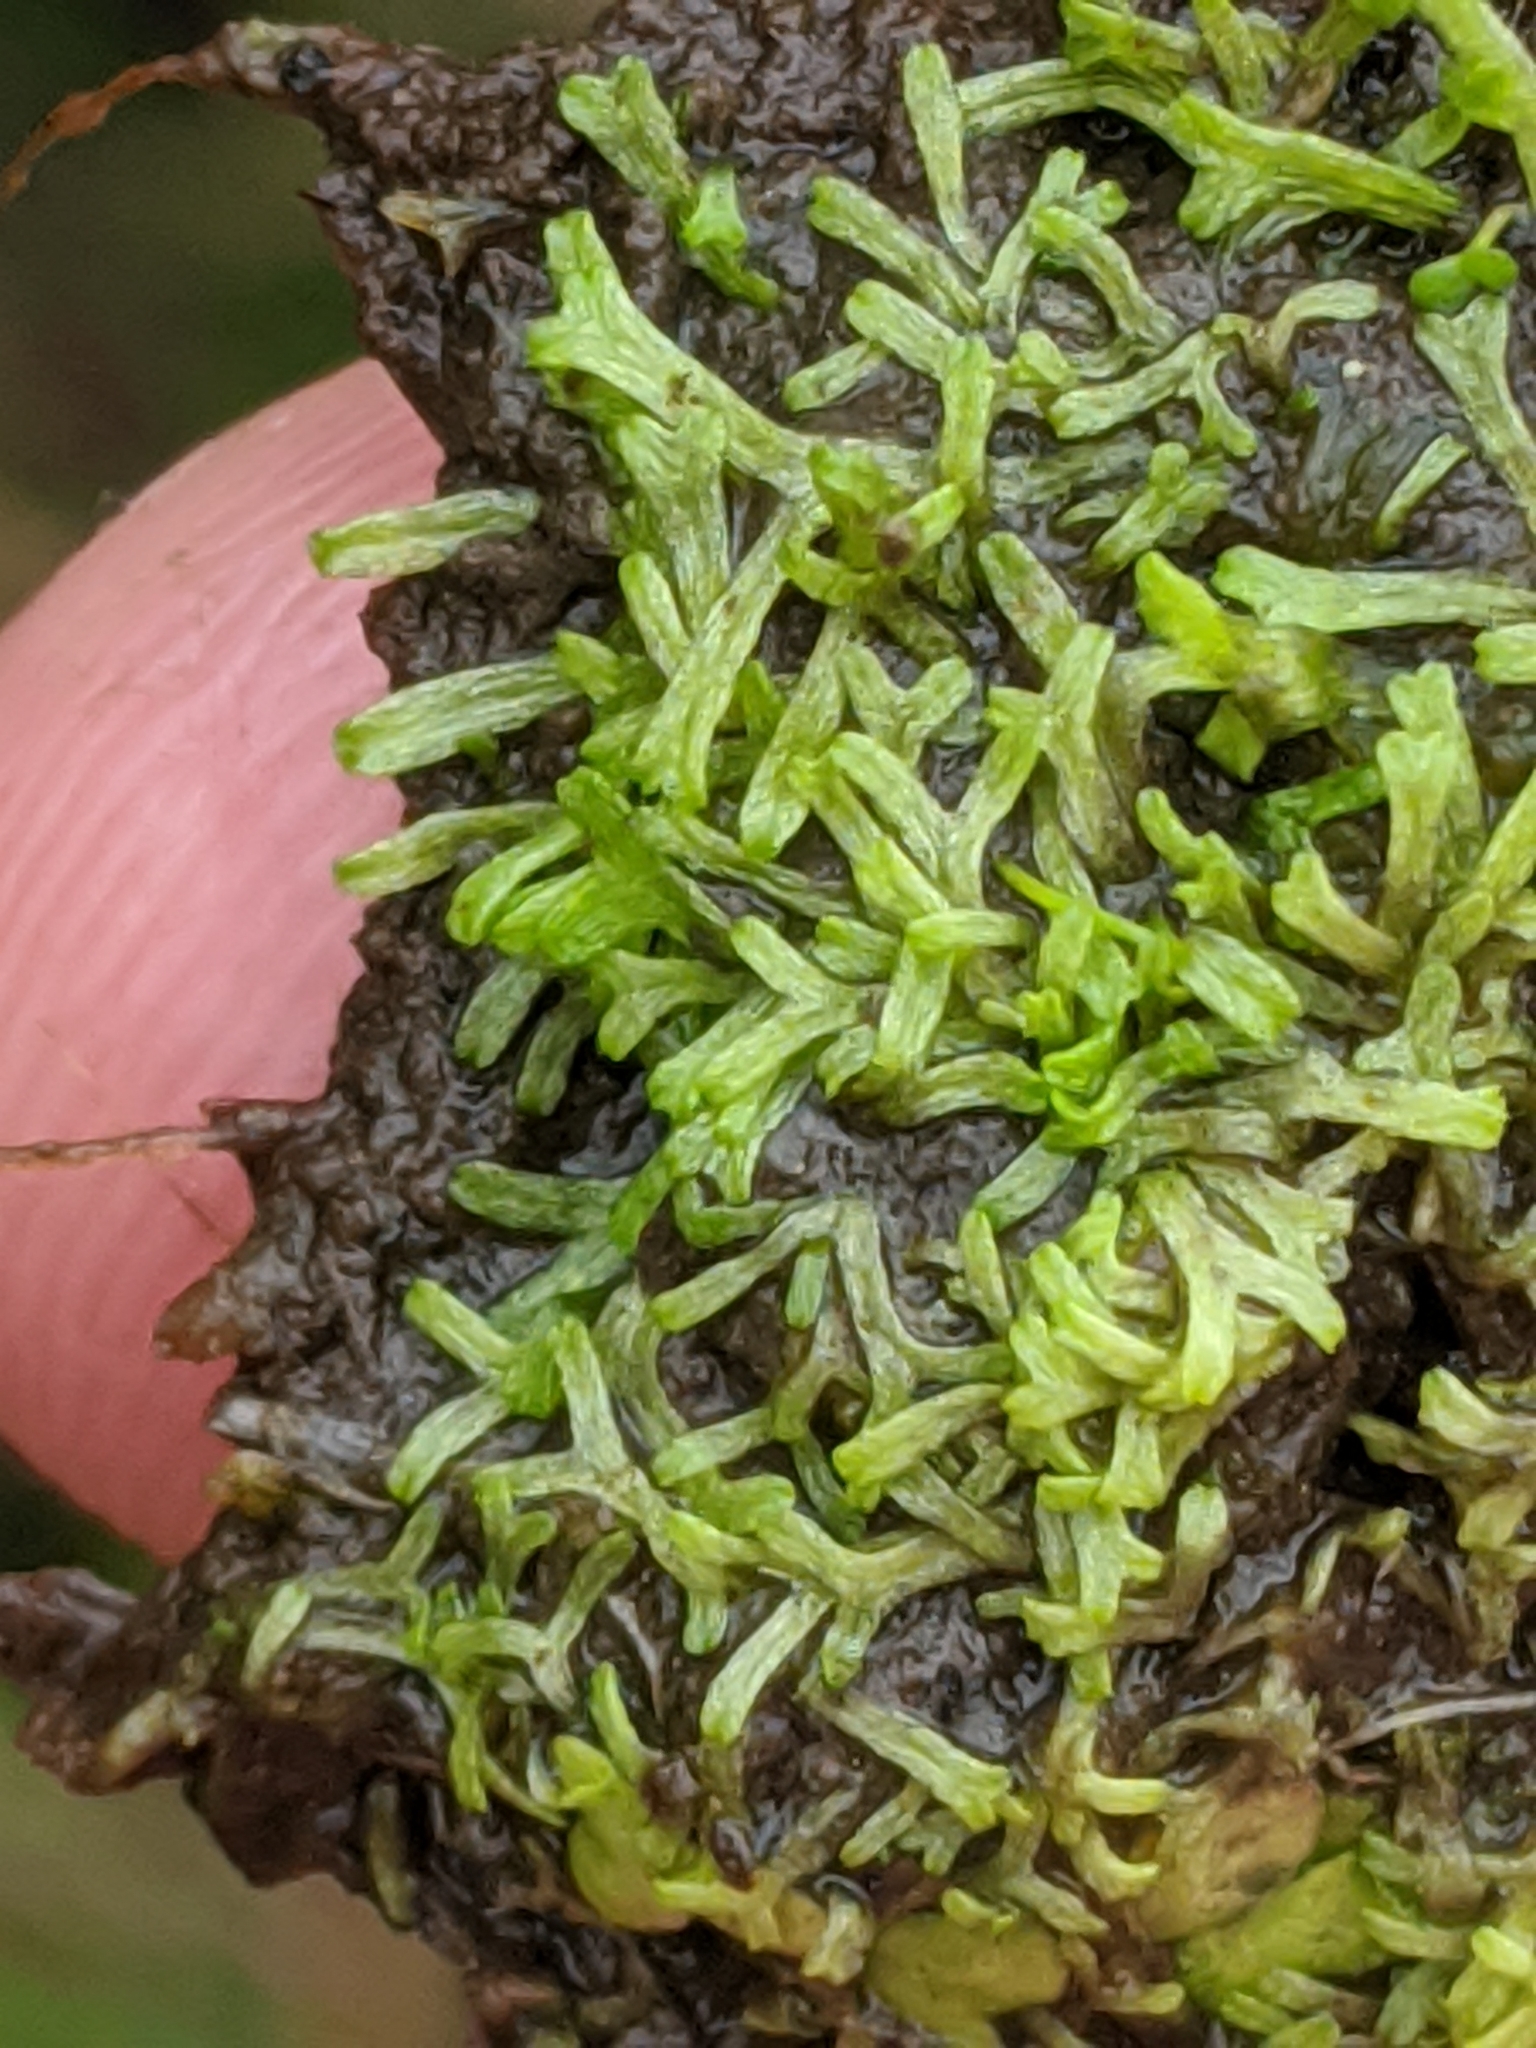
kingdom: Plantae
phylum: Marchantiophyta
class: Marchantiopsida
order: Marchantiales
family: Ricciaceae
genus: Riccia
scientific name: Riccia fluitans
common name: Floating crystalwort
